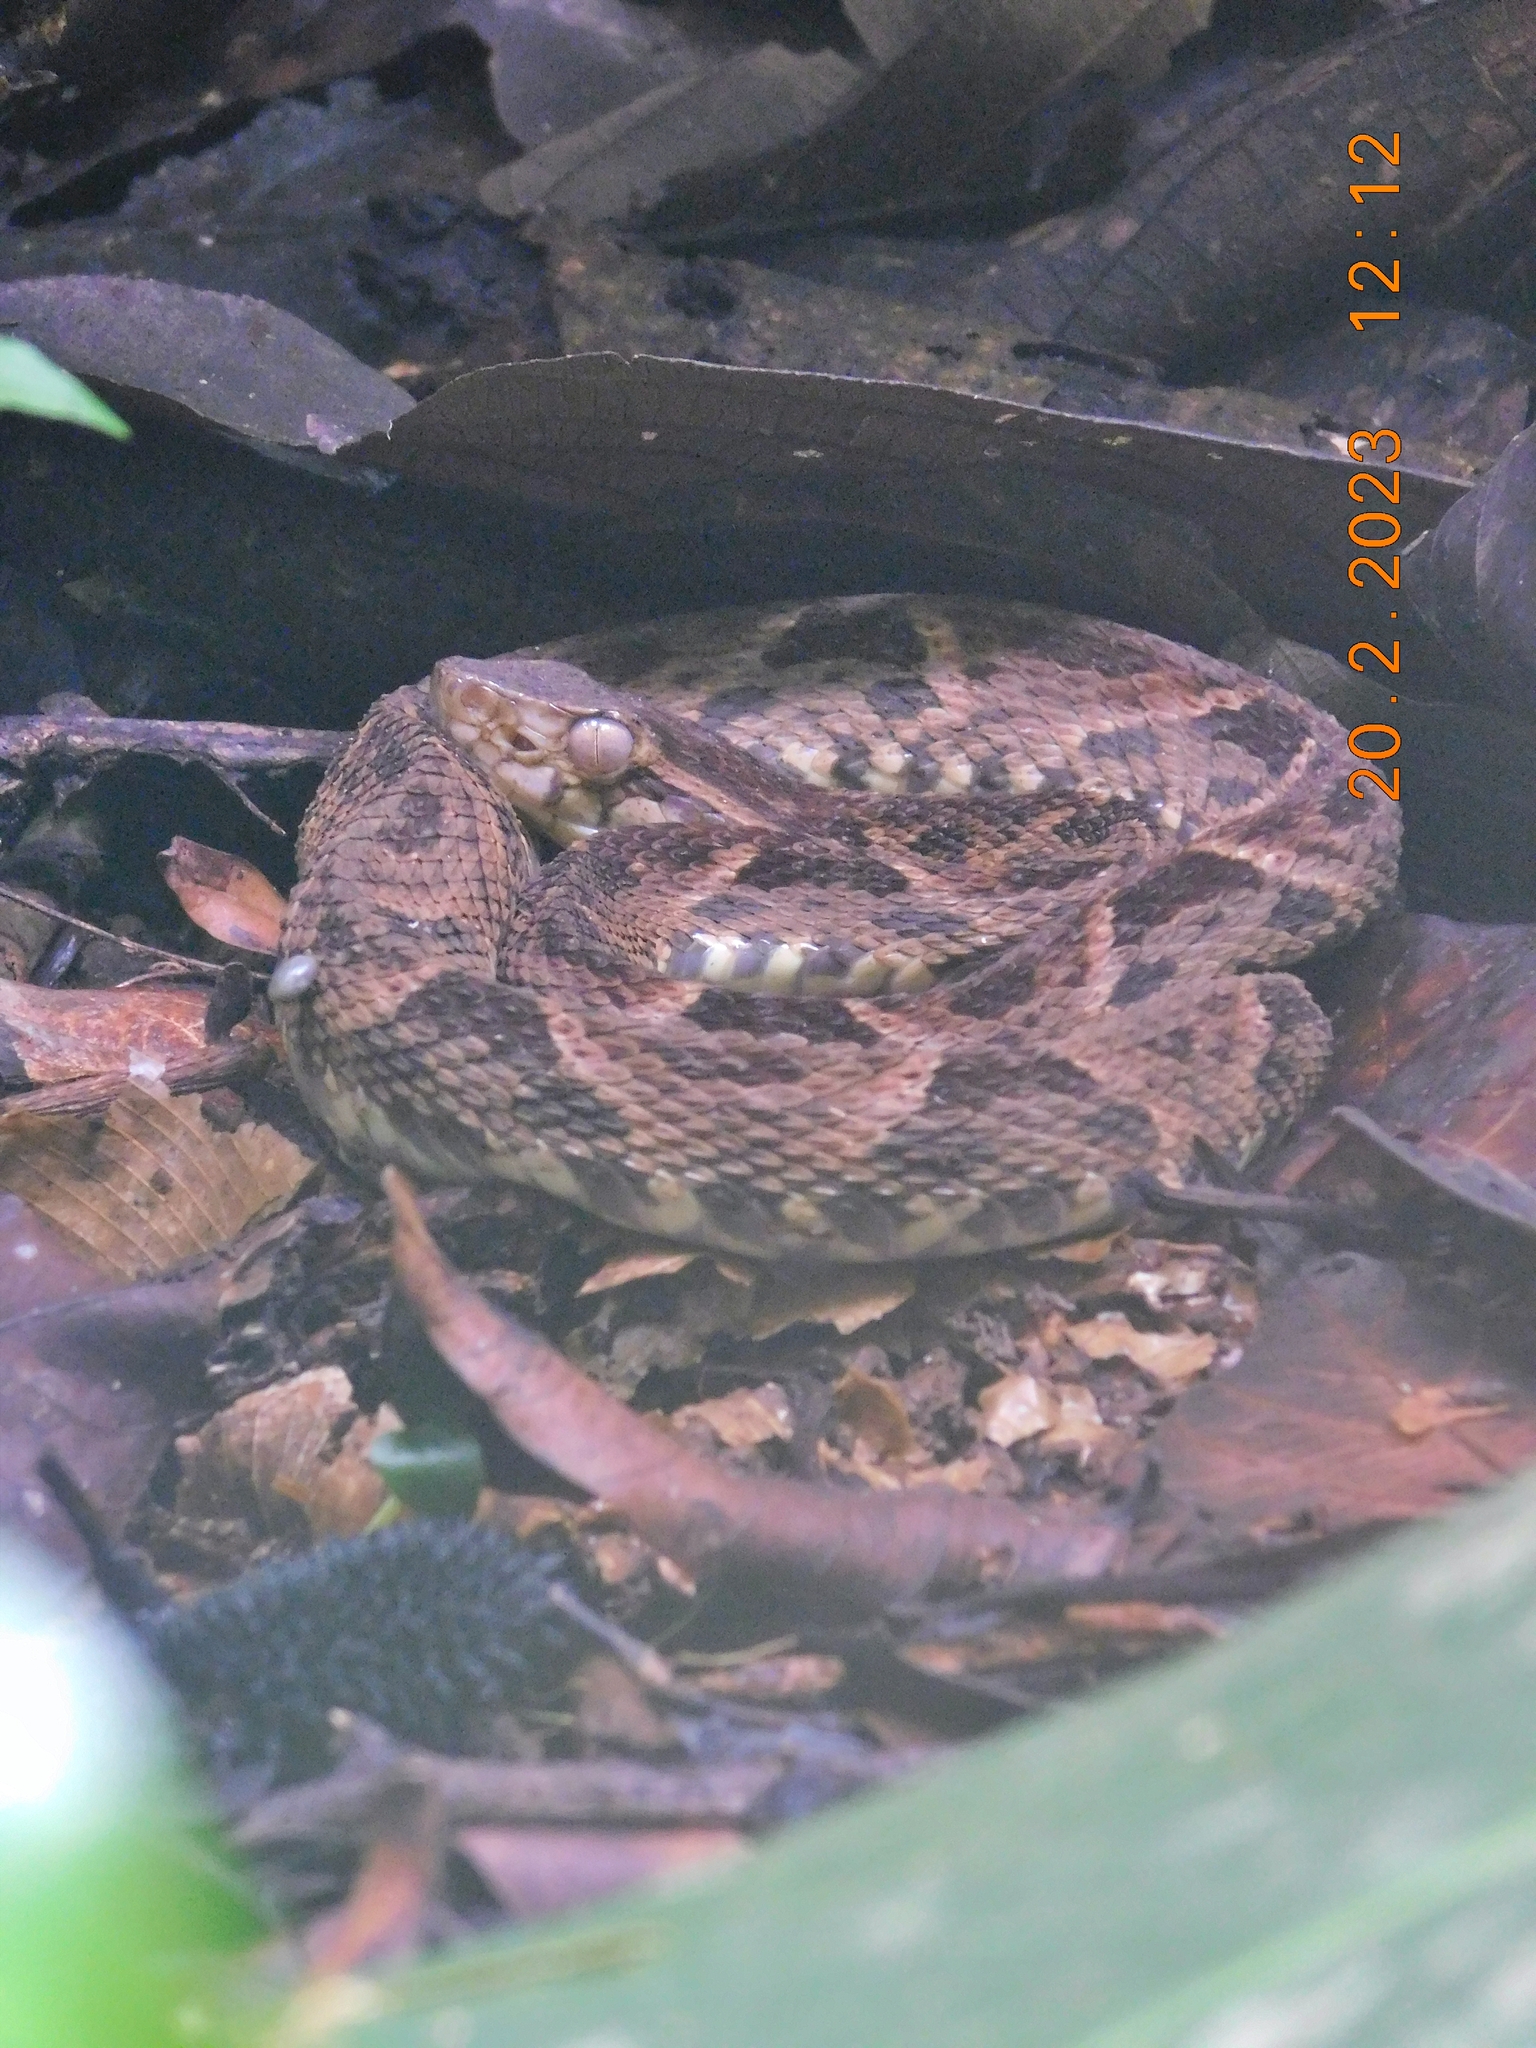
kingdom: Animalia
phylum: Chordata
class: Squamata
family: Viperidae
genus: Bothrops
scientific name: Bothrops asper
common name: Terciopelo
